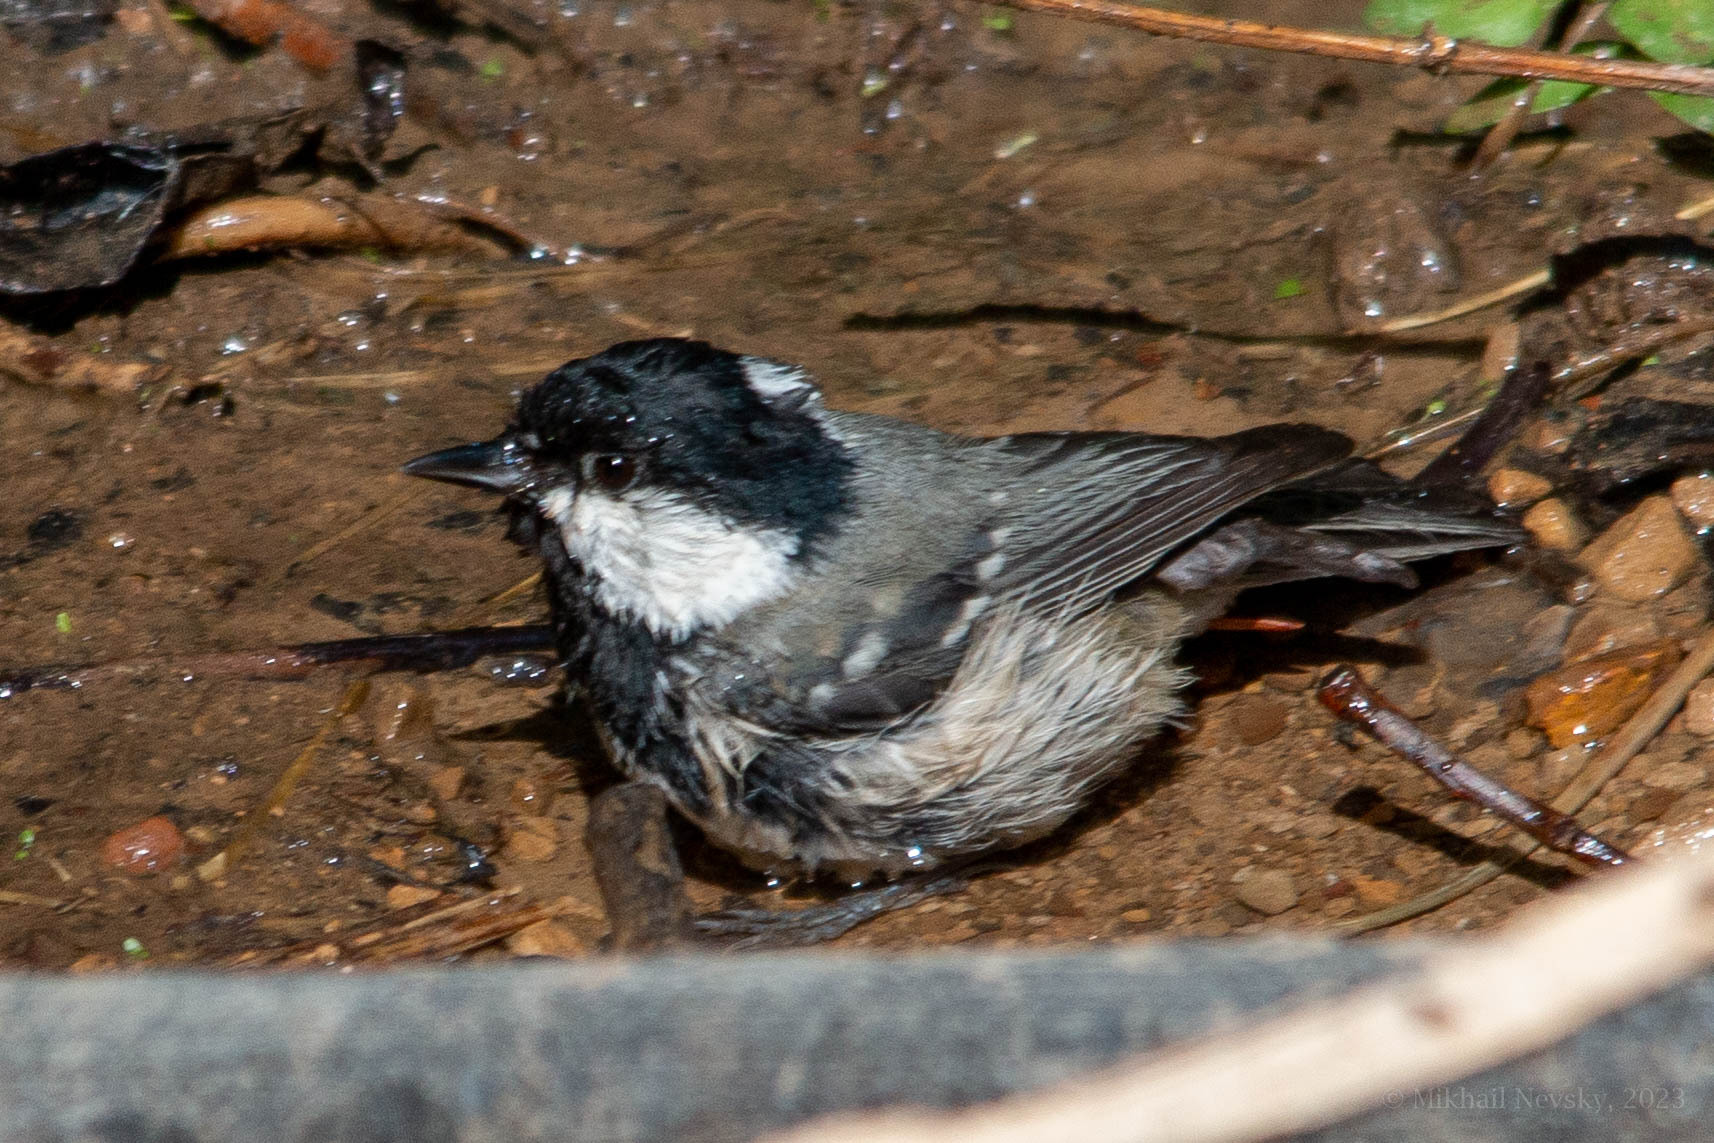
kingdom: Animalia
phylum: Chordata
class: Aves
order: Passeriformes
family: Paridae
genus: Periparus
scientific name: Periparus ater
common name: Coal tit
